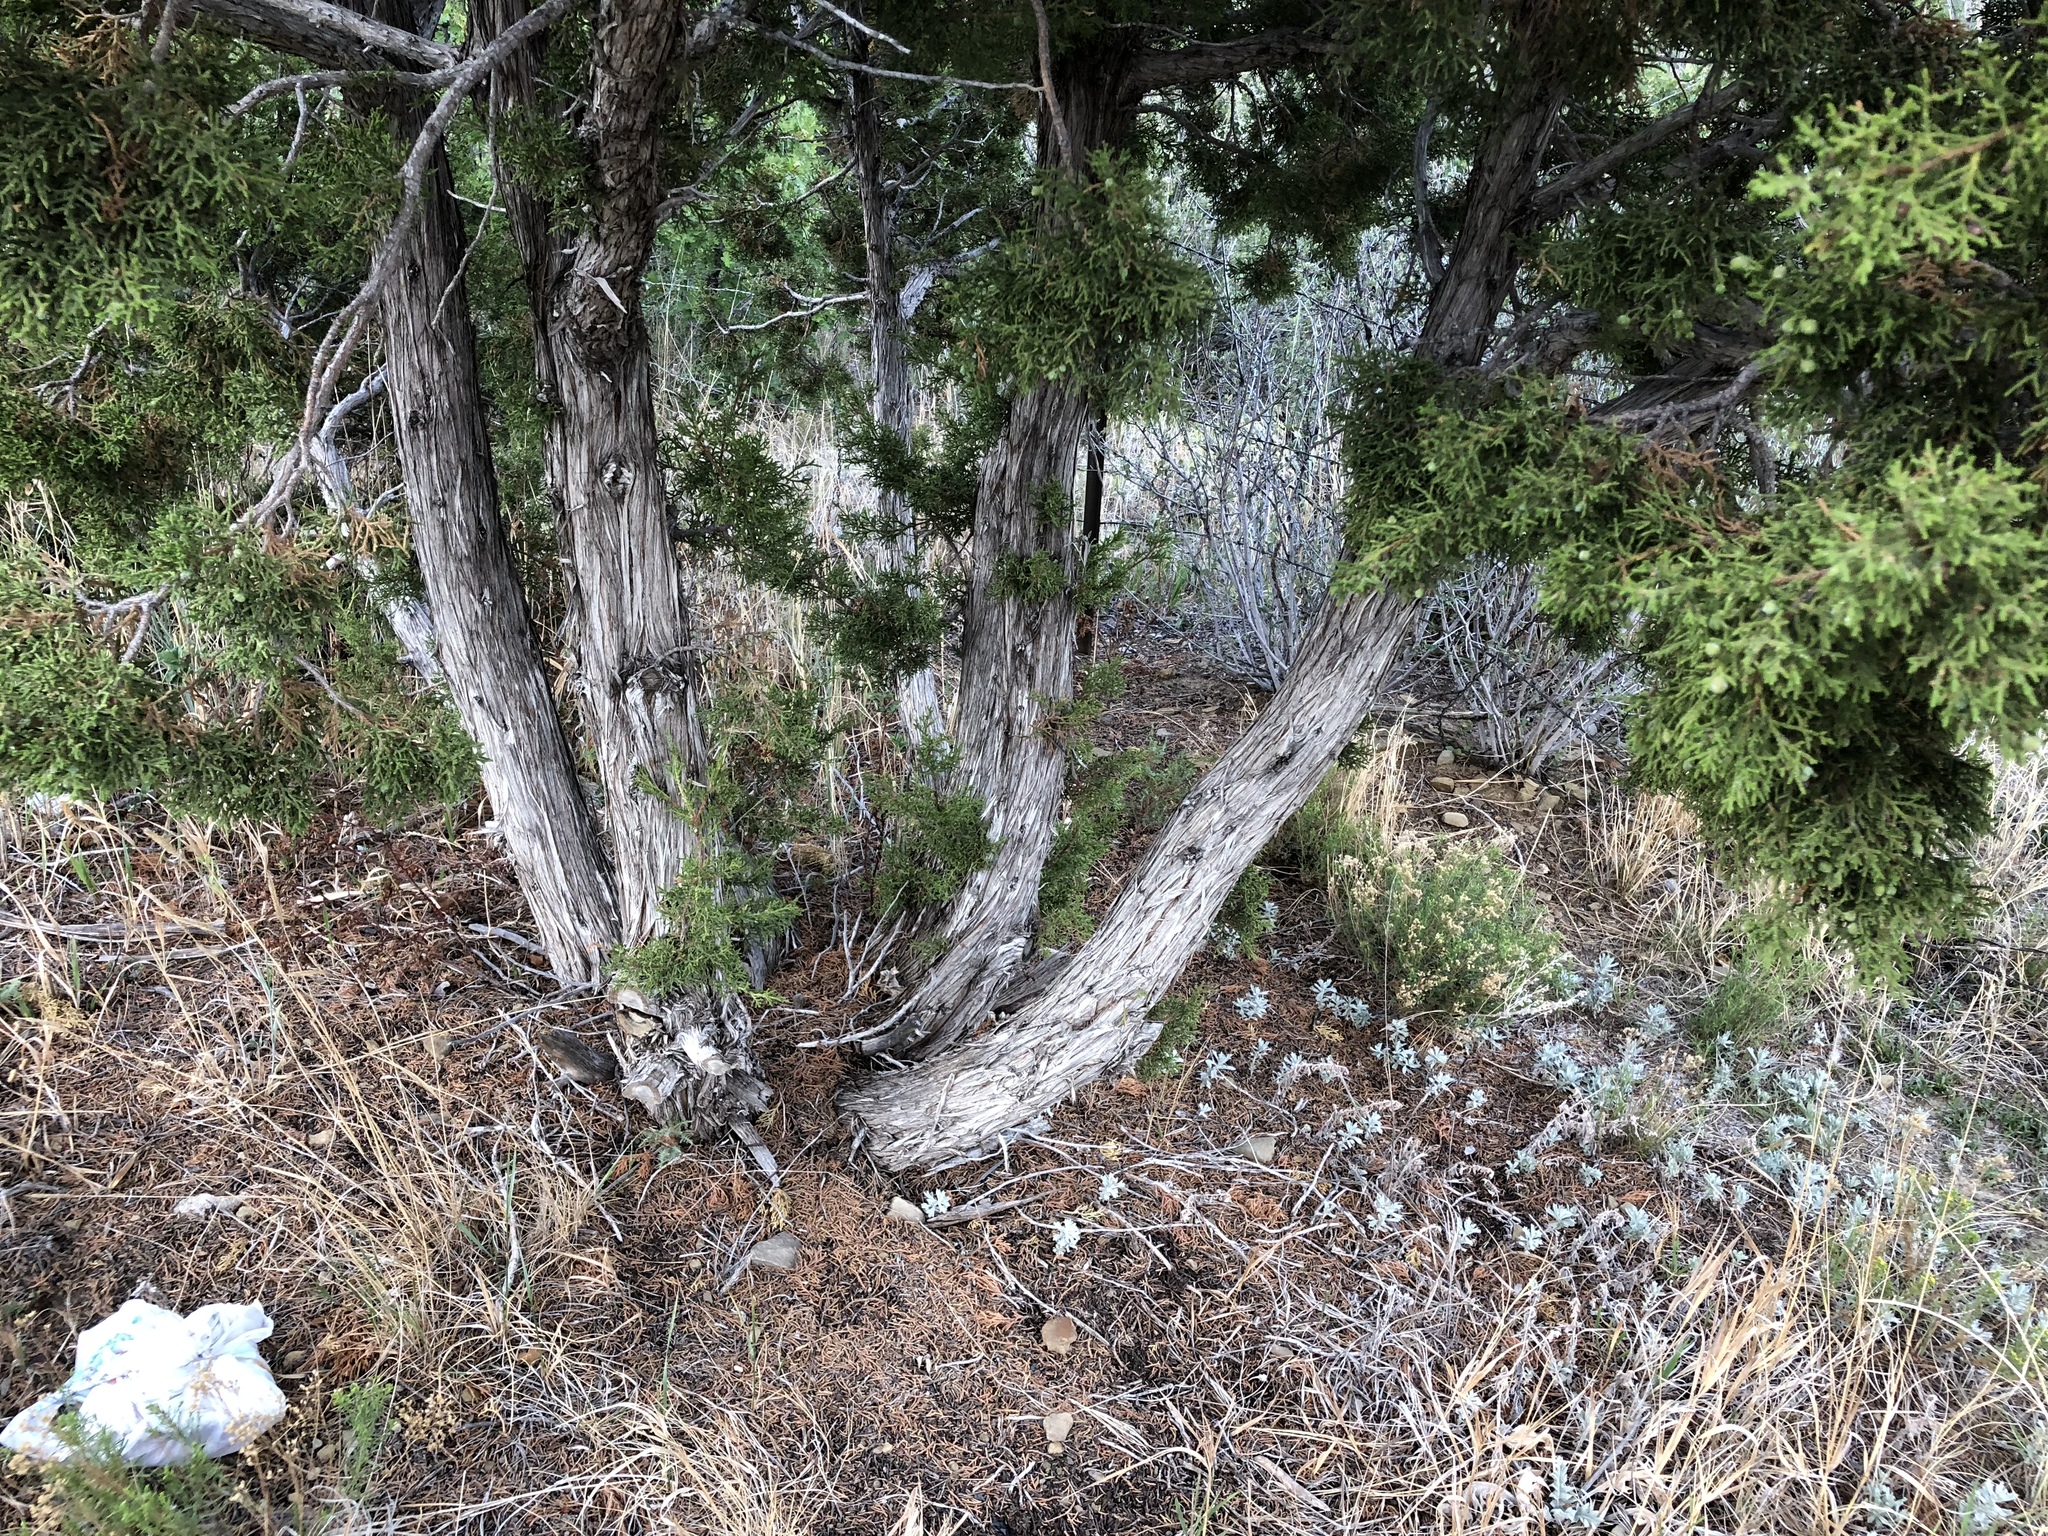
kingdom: Plantae
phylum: Tracheophyta
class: Pinopsida
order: Pinales
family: Cupressaceae
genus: Juniperus
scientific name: Juniperus monosperma
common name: One-seed juniper
